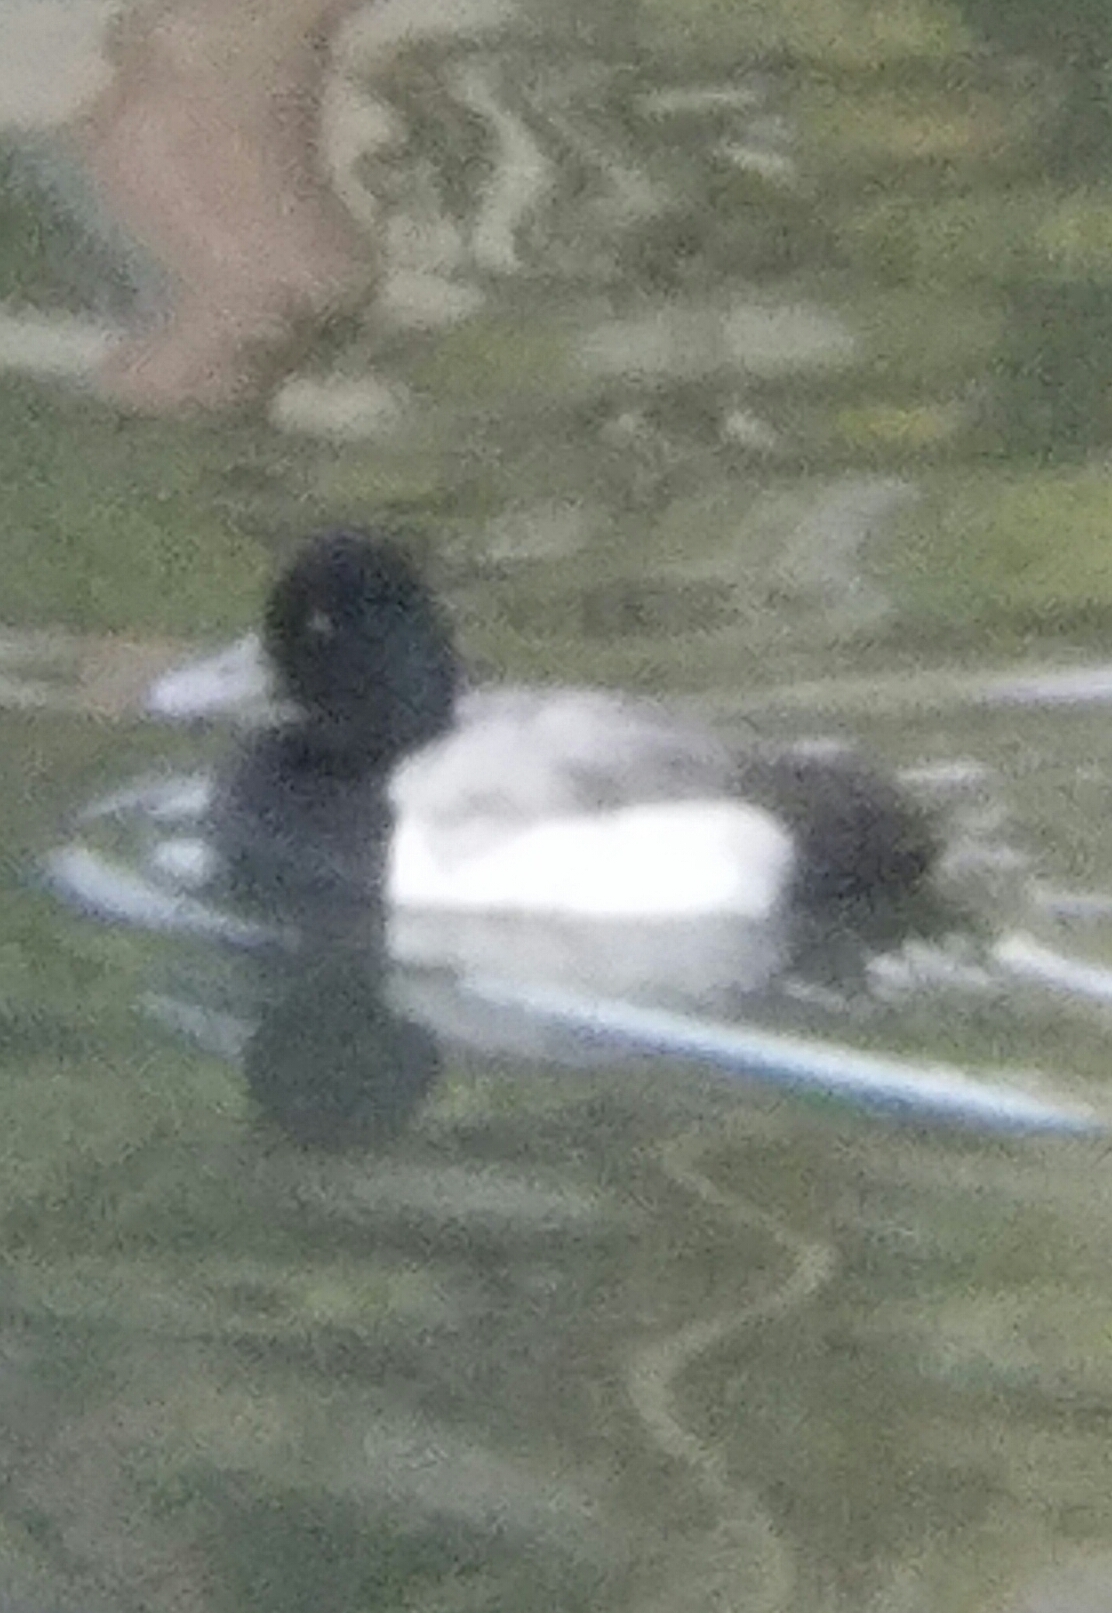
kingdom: Animalia
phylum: Chordata
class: Aves
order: Anseriformes
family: Anatidae
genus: Aythya
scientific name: Aythya affinis
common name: Lesser scaup
